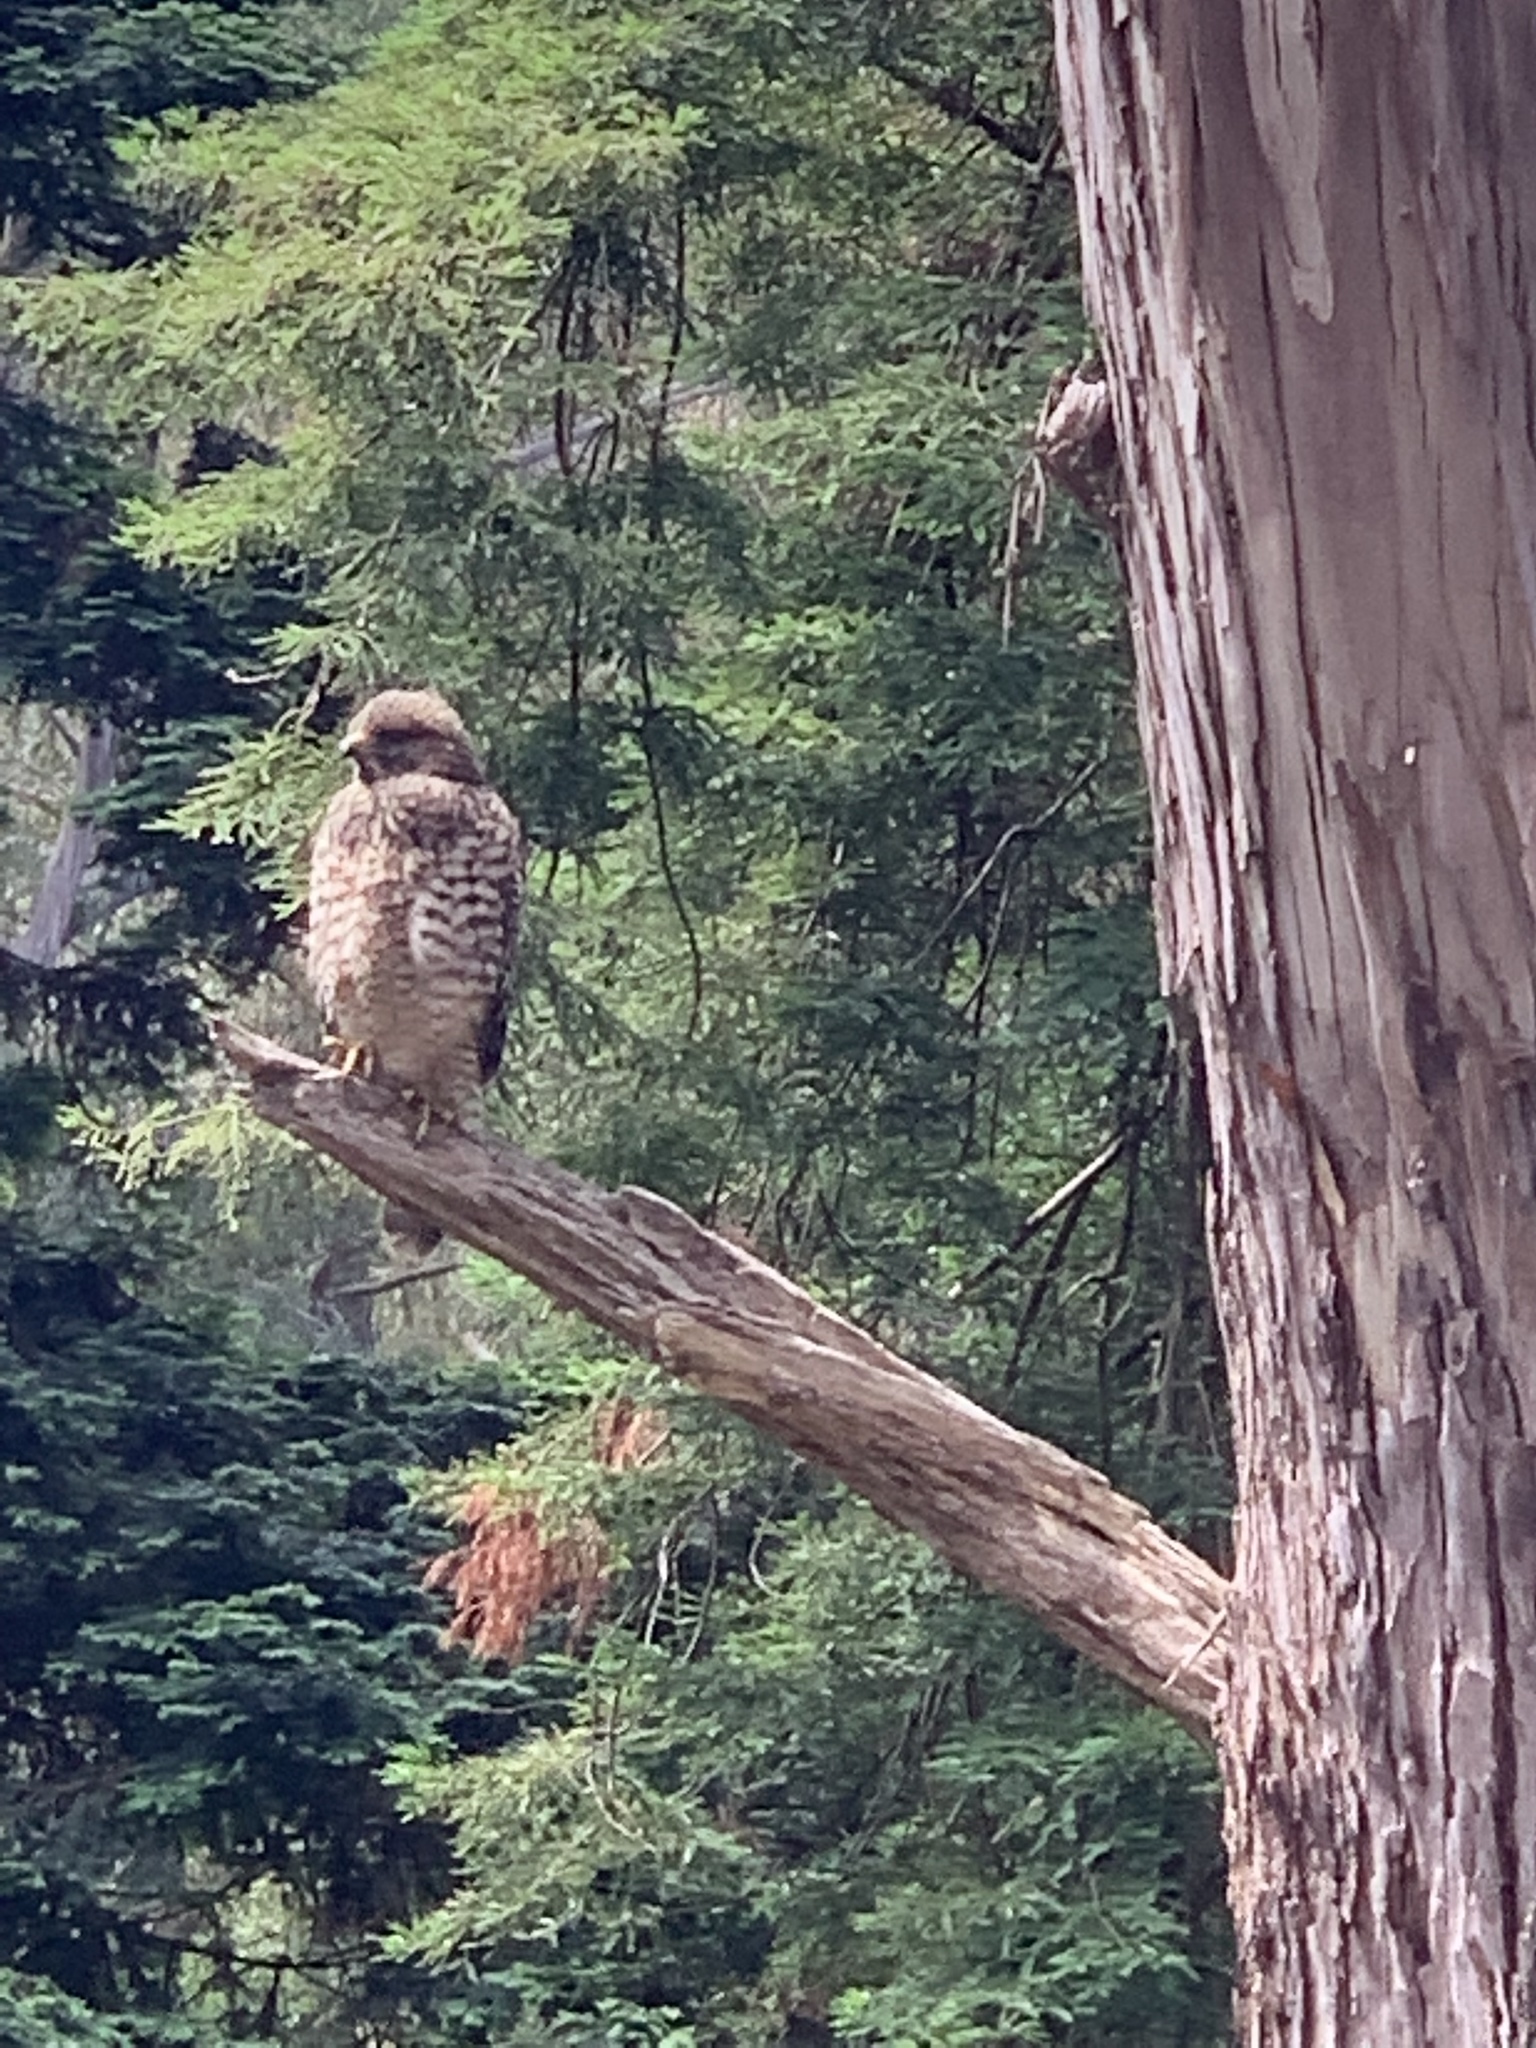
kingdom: Animalia
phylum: Chordata
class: Aves
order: Accipitriformes
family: Accipitridae
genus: Buteo
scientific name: Buteo lineatus
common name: Red-shouldered hawk
